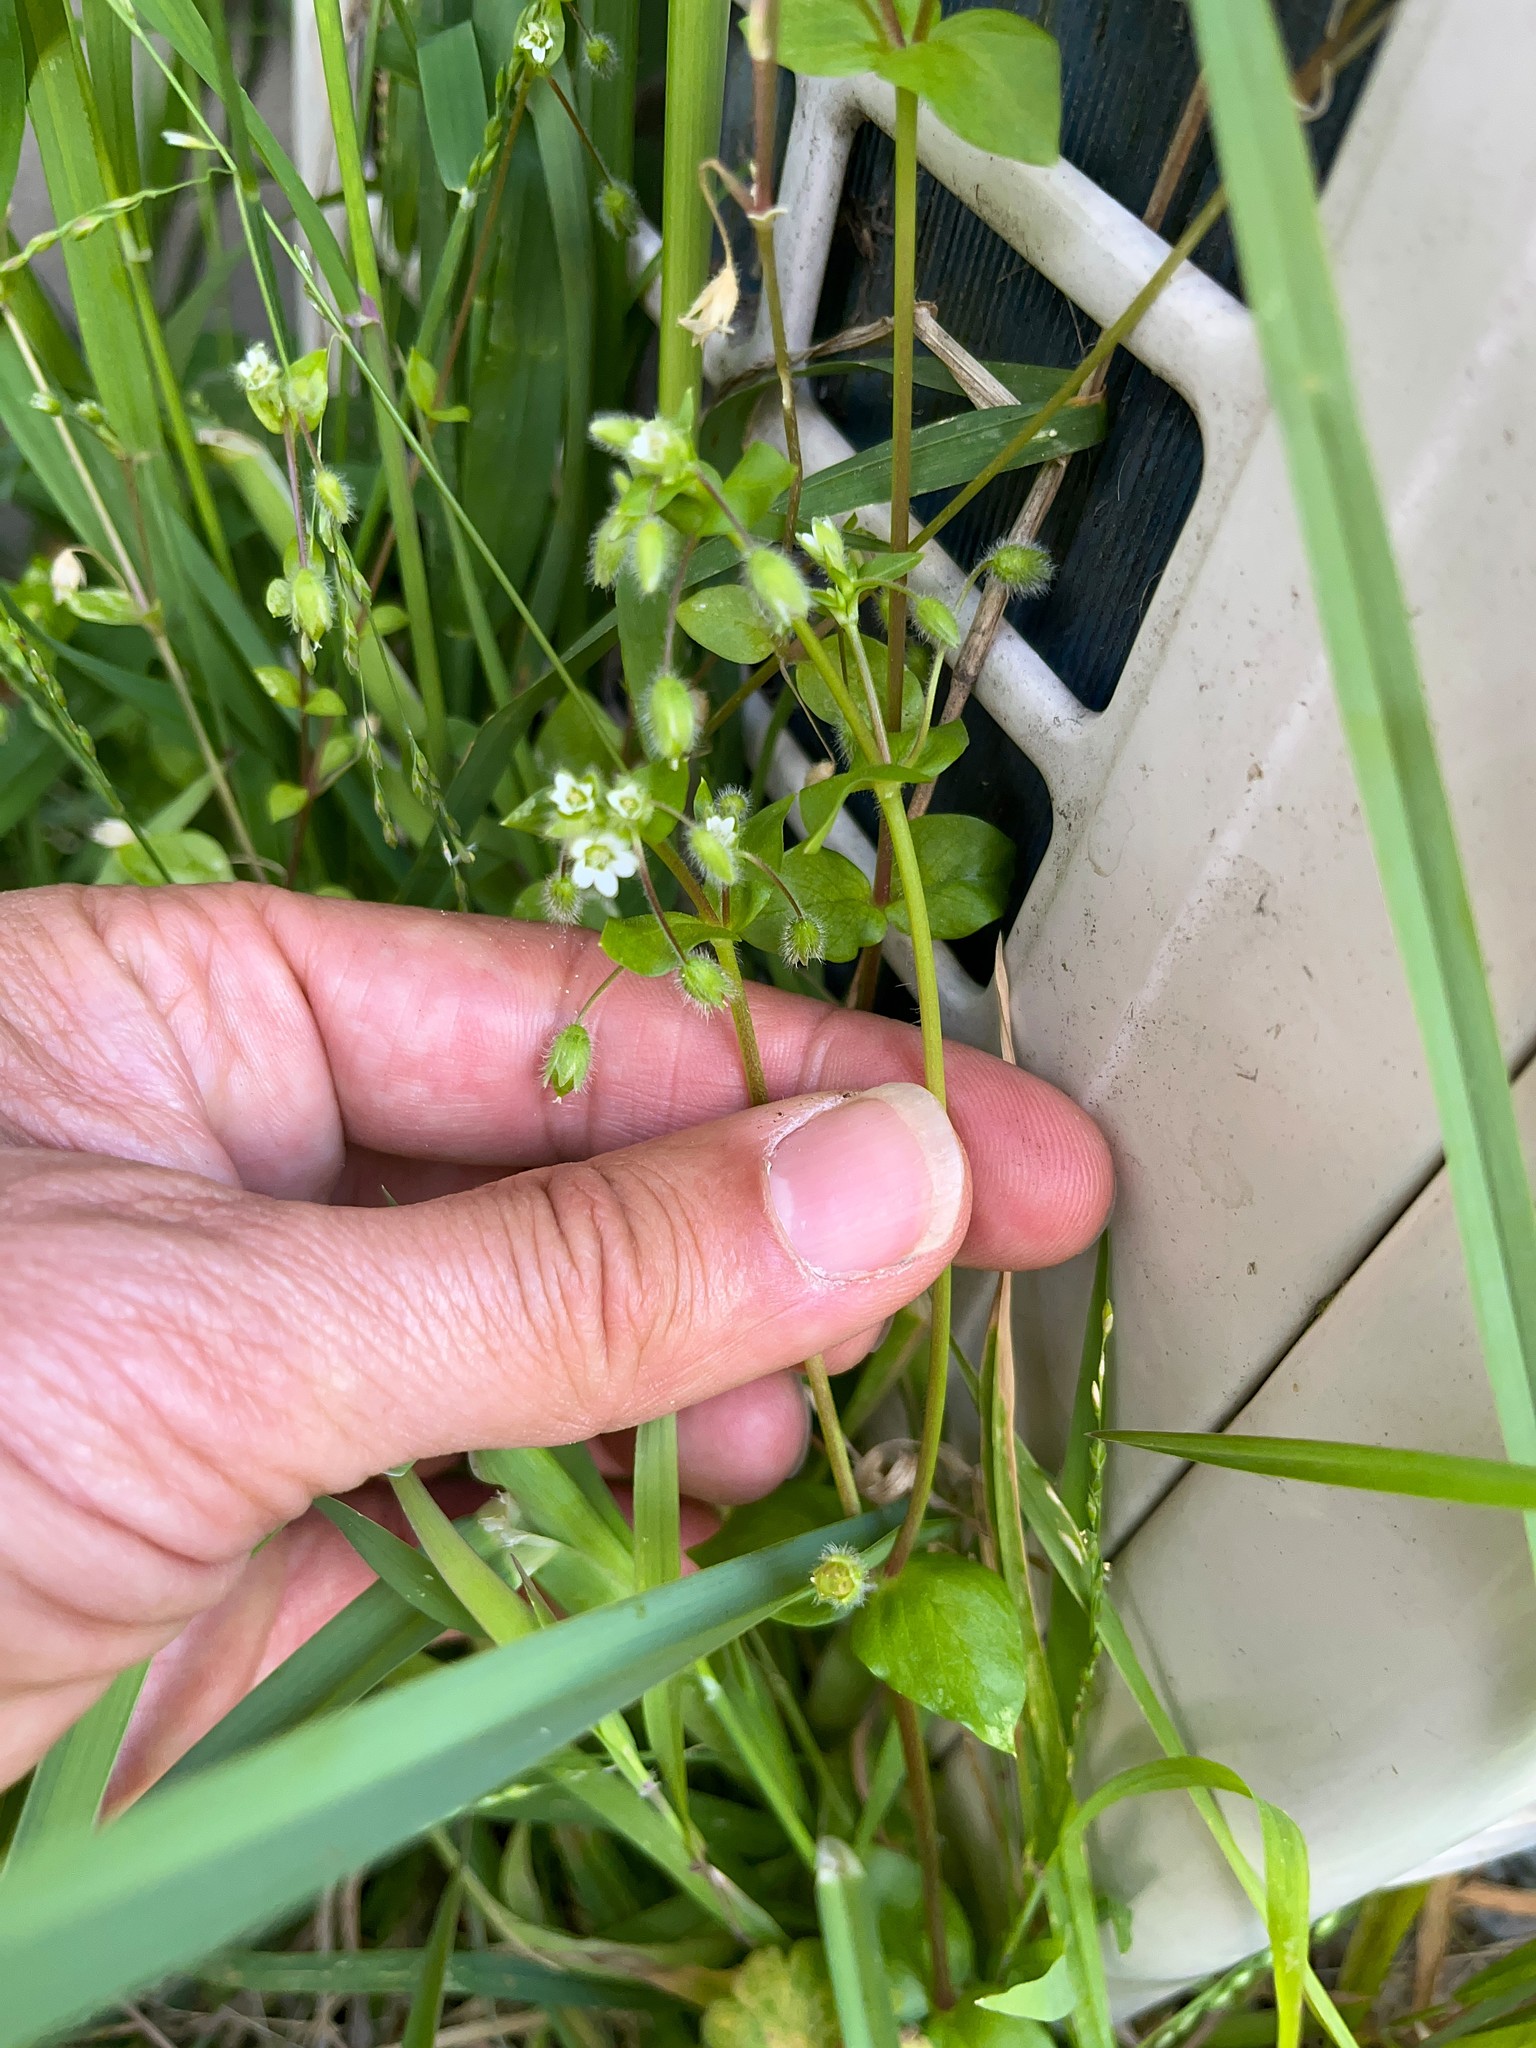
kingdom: Plantae
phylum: Tracheophyta
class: Magnoliopsida
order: Caryophyllales
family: Caryophyllaceae
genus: Stellaria
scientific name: Stellaria media
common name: Common chickweed
